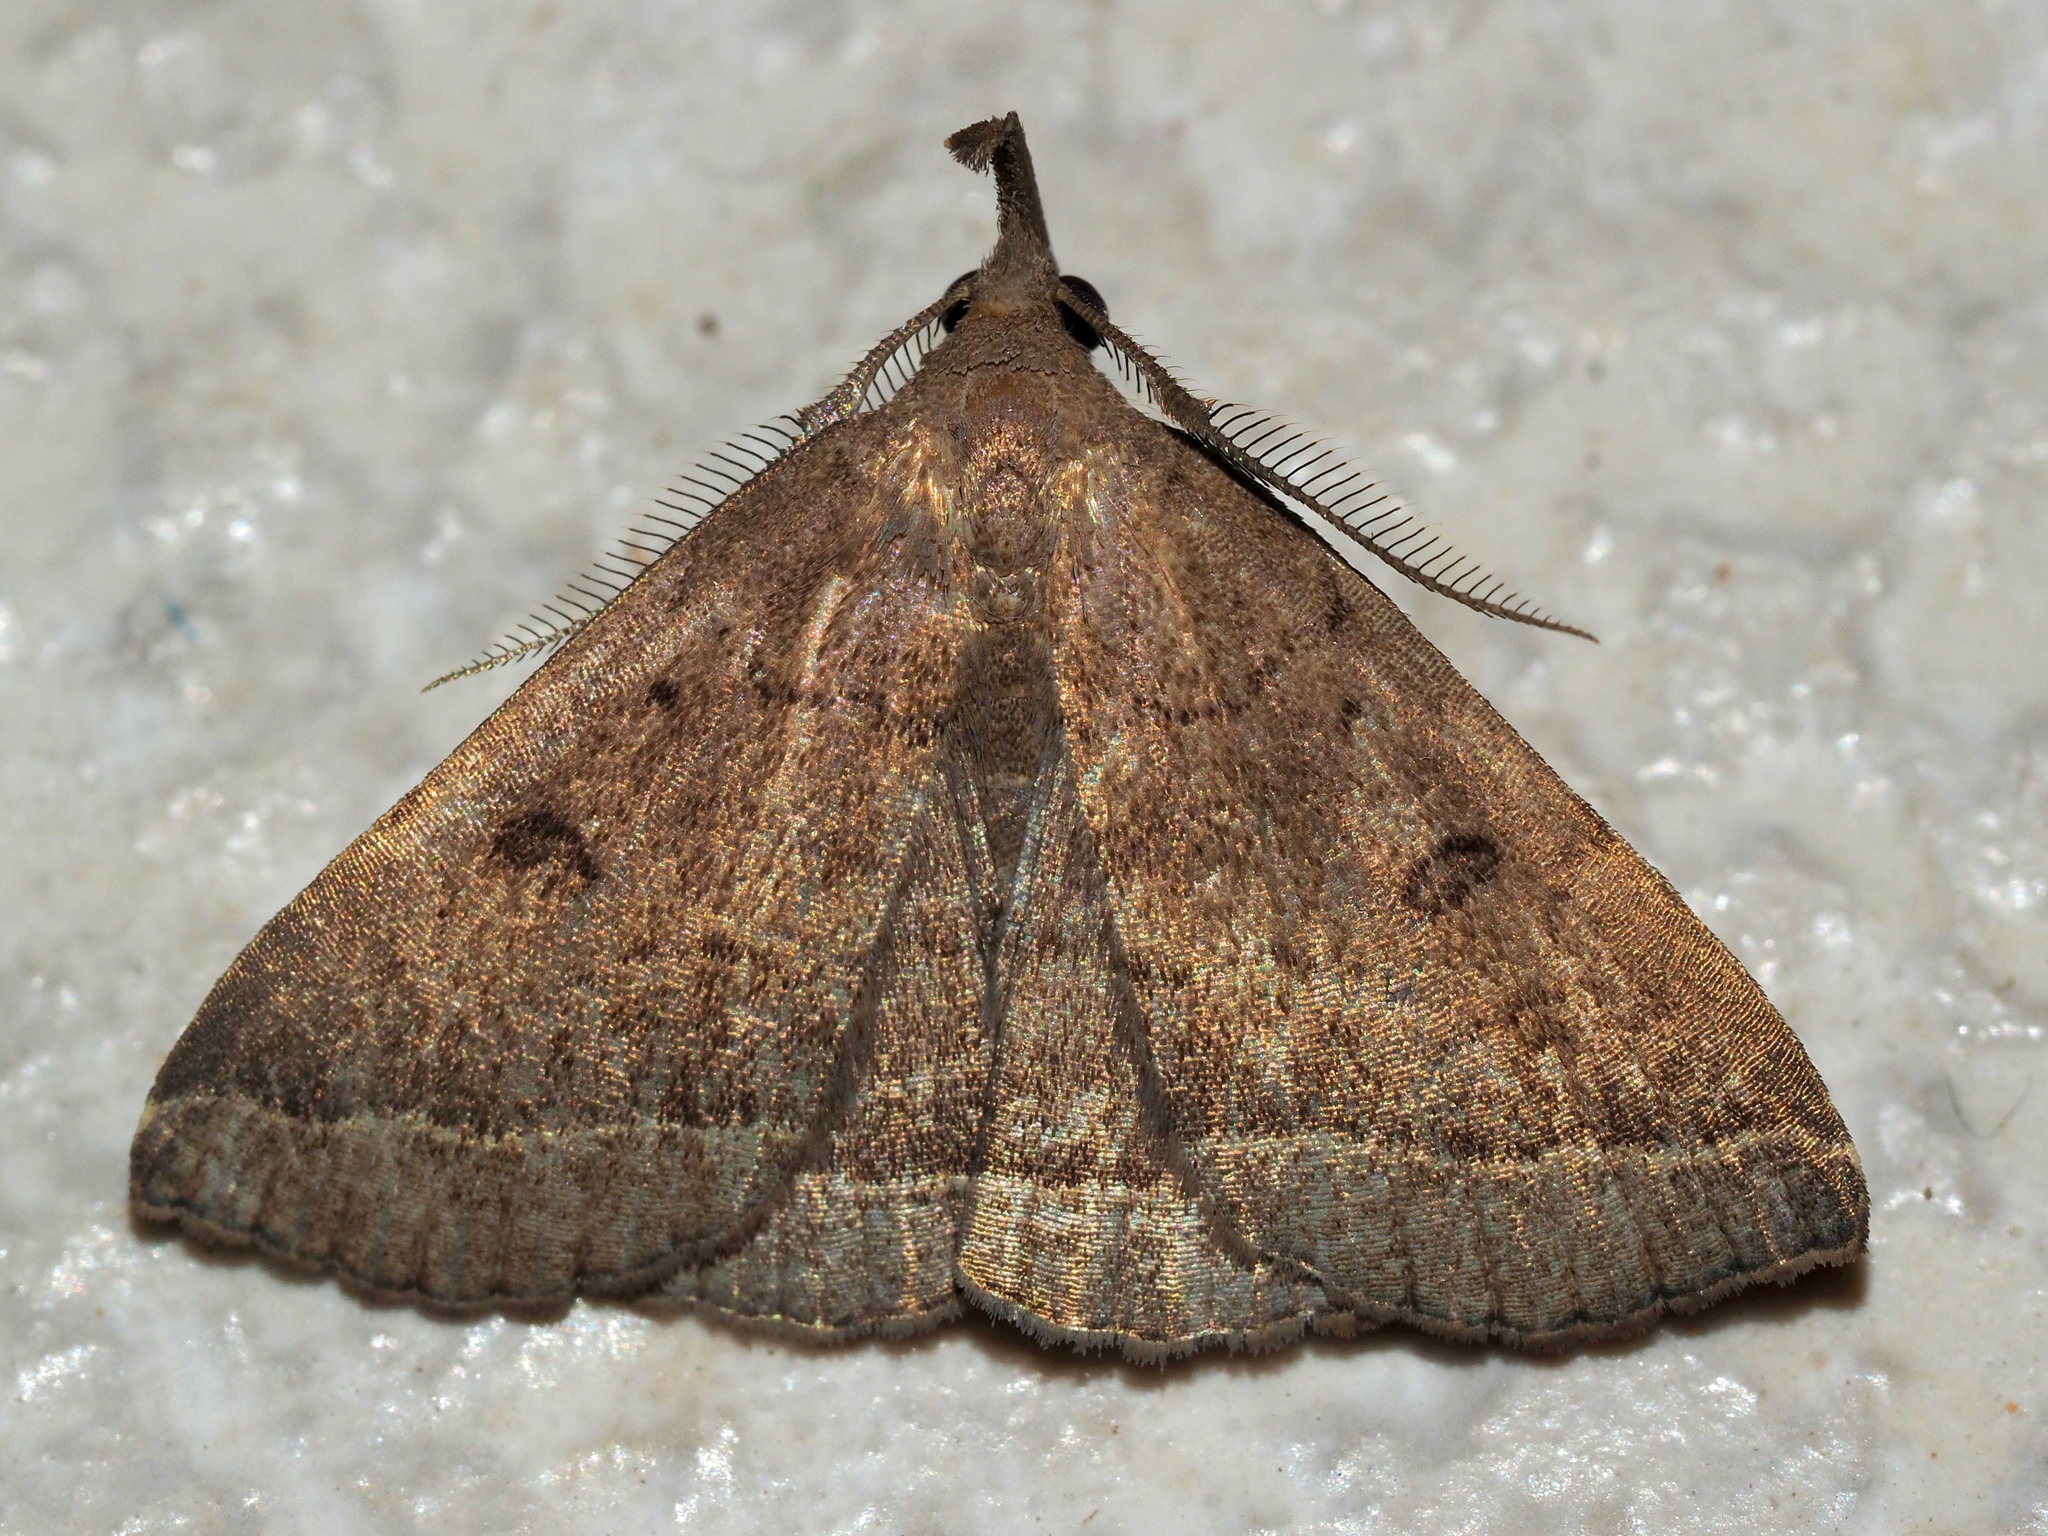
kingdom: Animalia
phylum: Arthropoda
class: Insecta
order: Lepidoptera
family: Erebidae
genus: Pechipogo
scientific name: Pechipogo plumigeralis
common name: Plumed fan-foot
